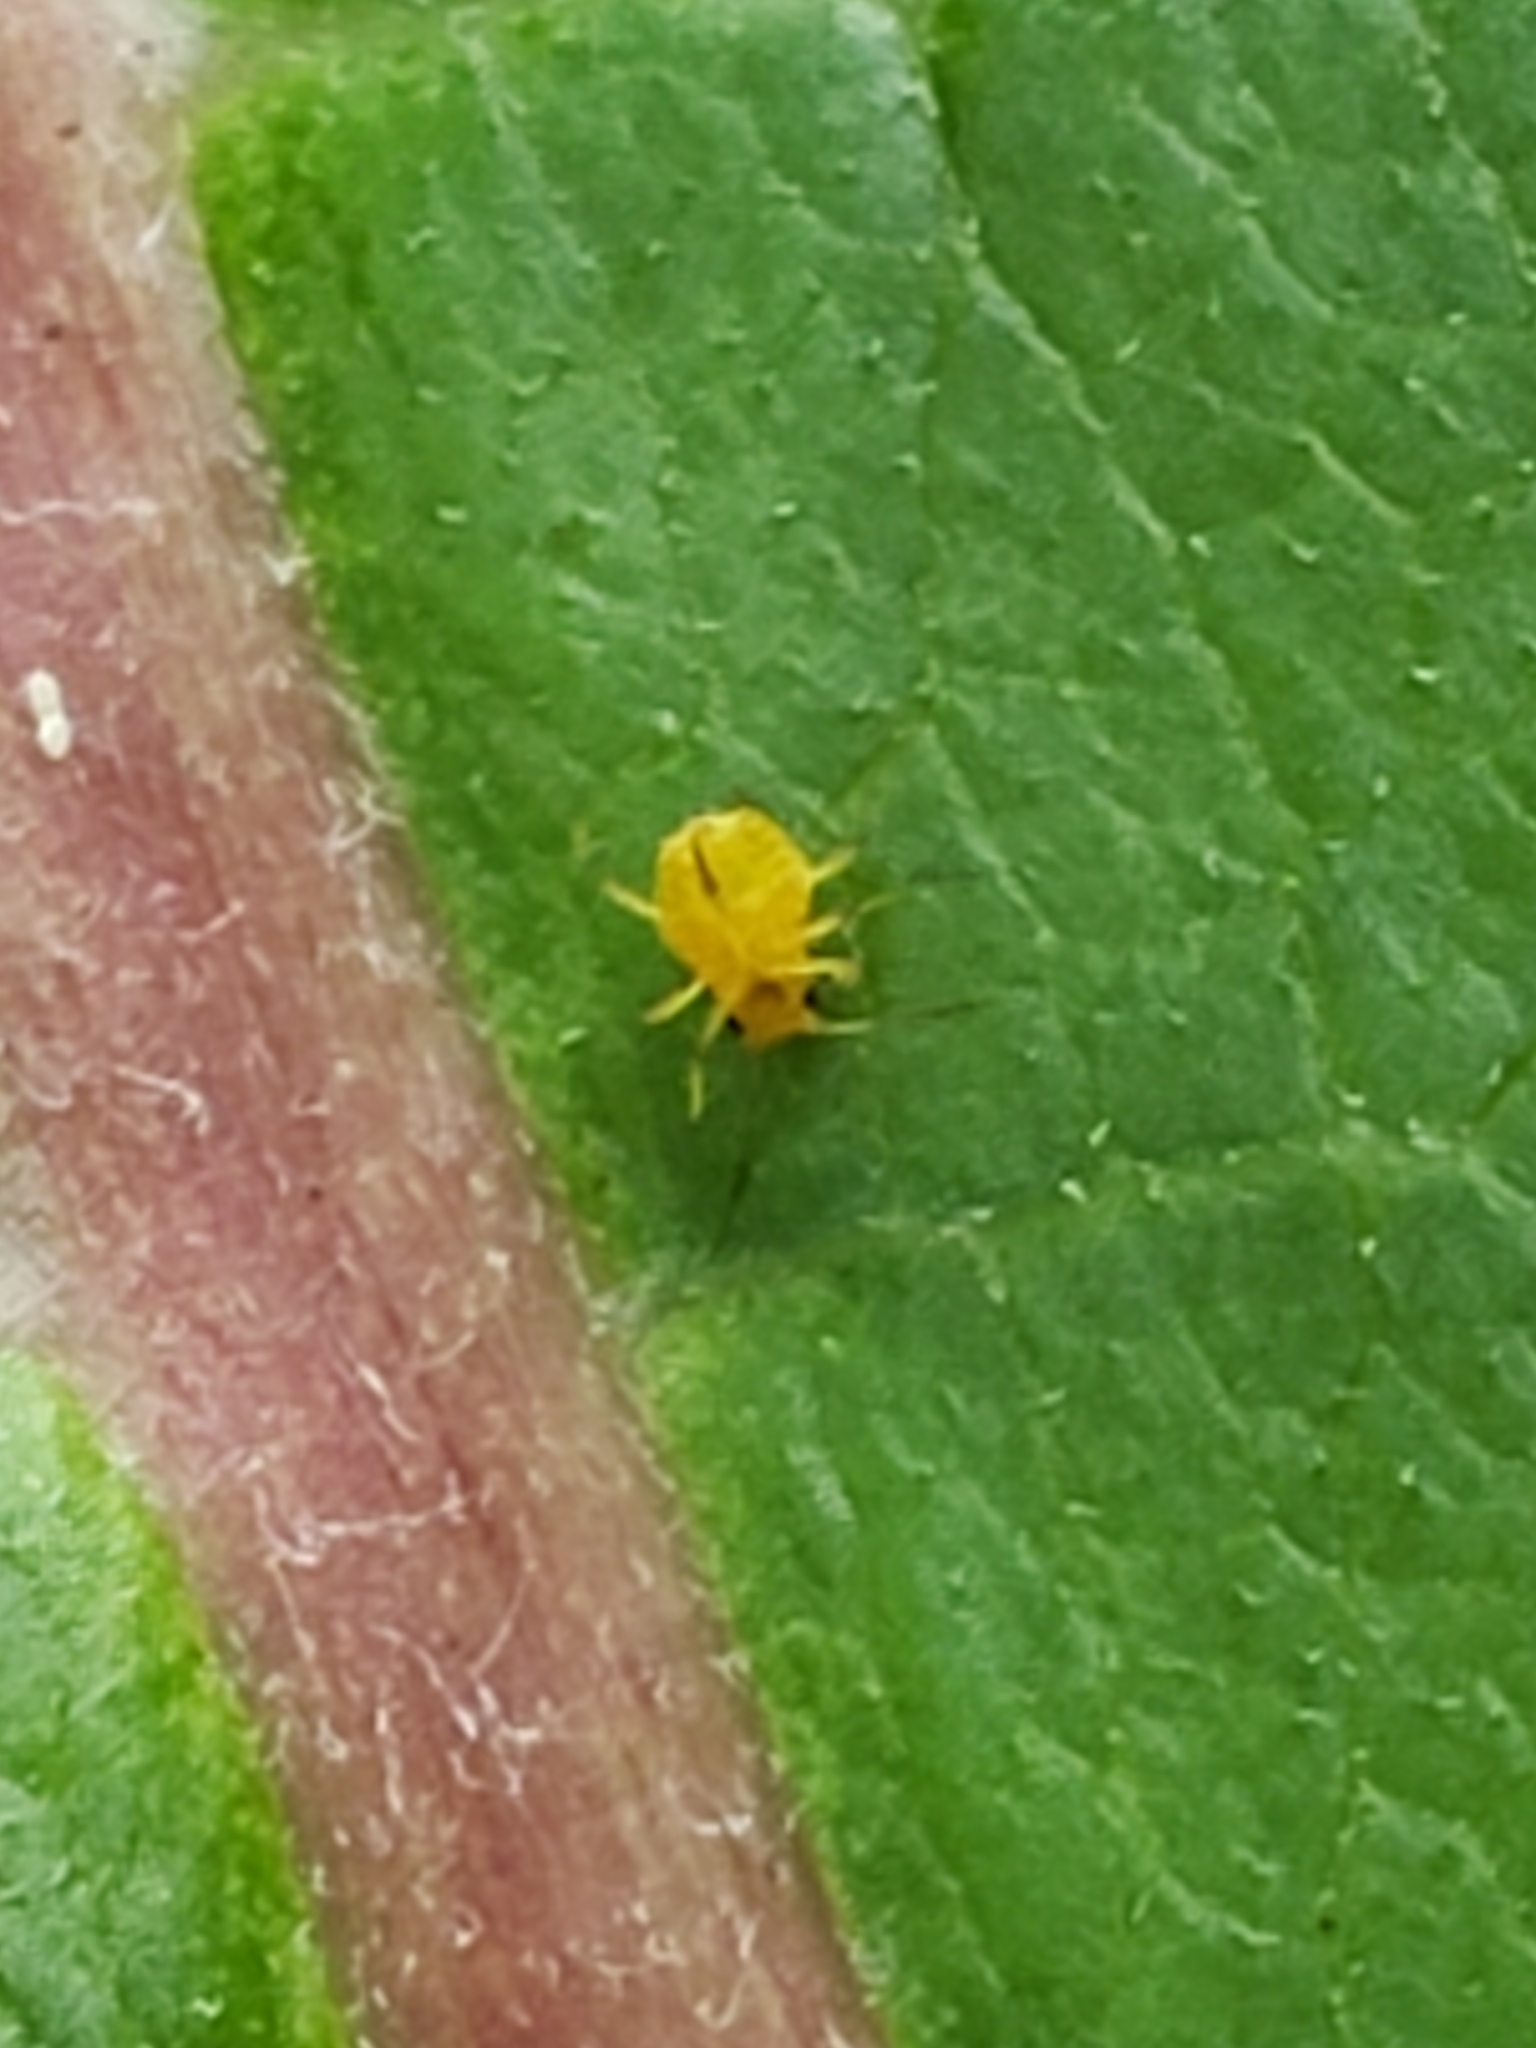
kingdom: Animalia
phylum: Arthropoda
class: Insecta
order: Hemiptera
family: Aphididae
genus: Aphis
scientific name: Aphis nerii
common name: Oleander aphid
